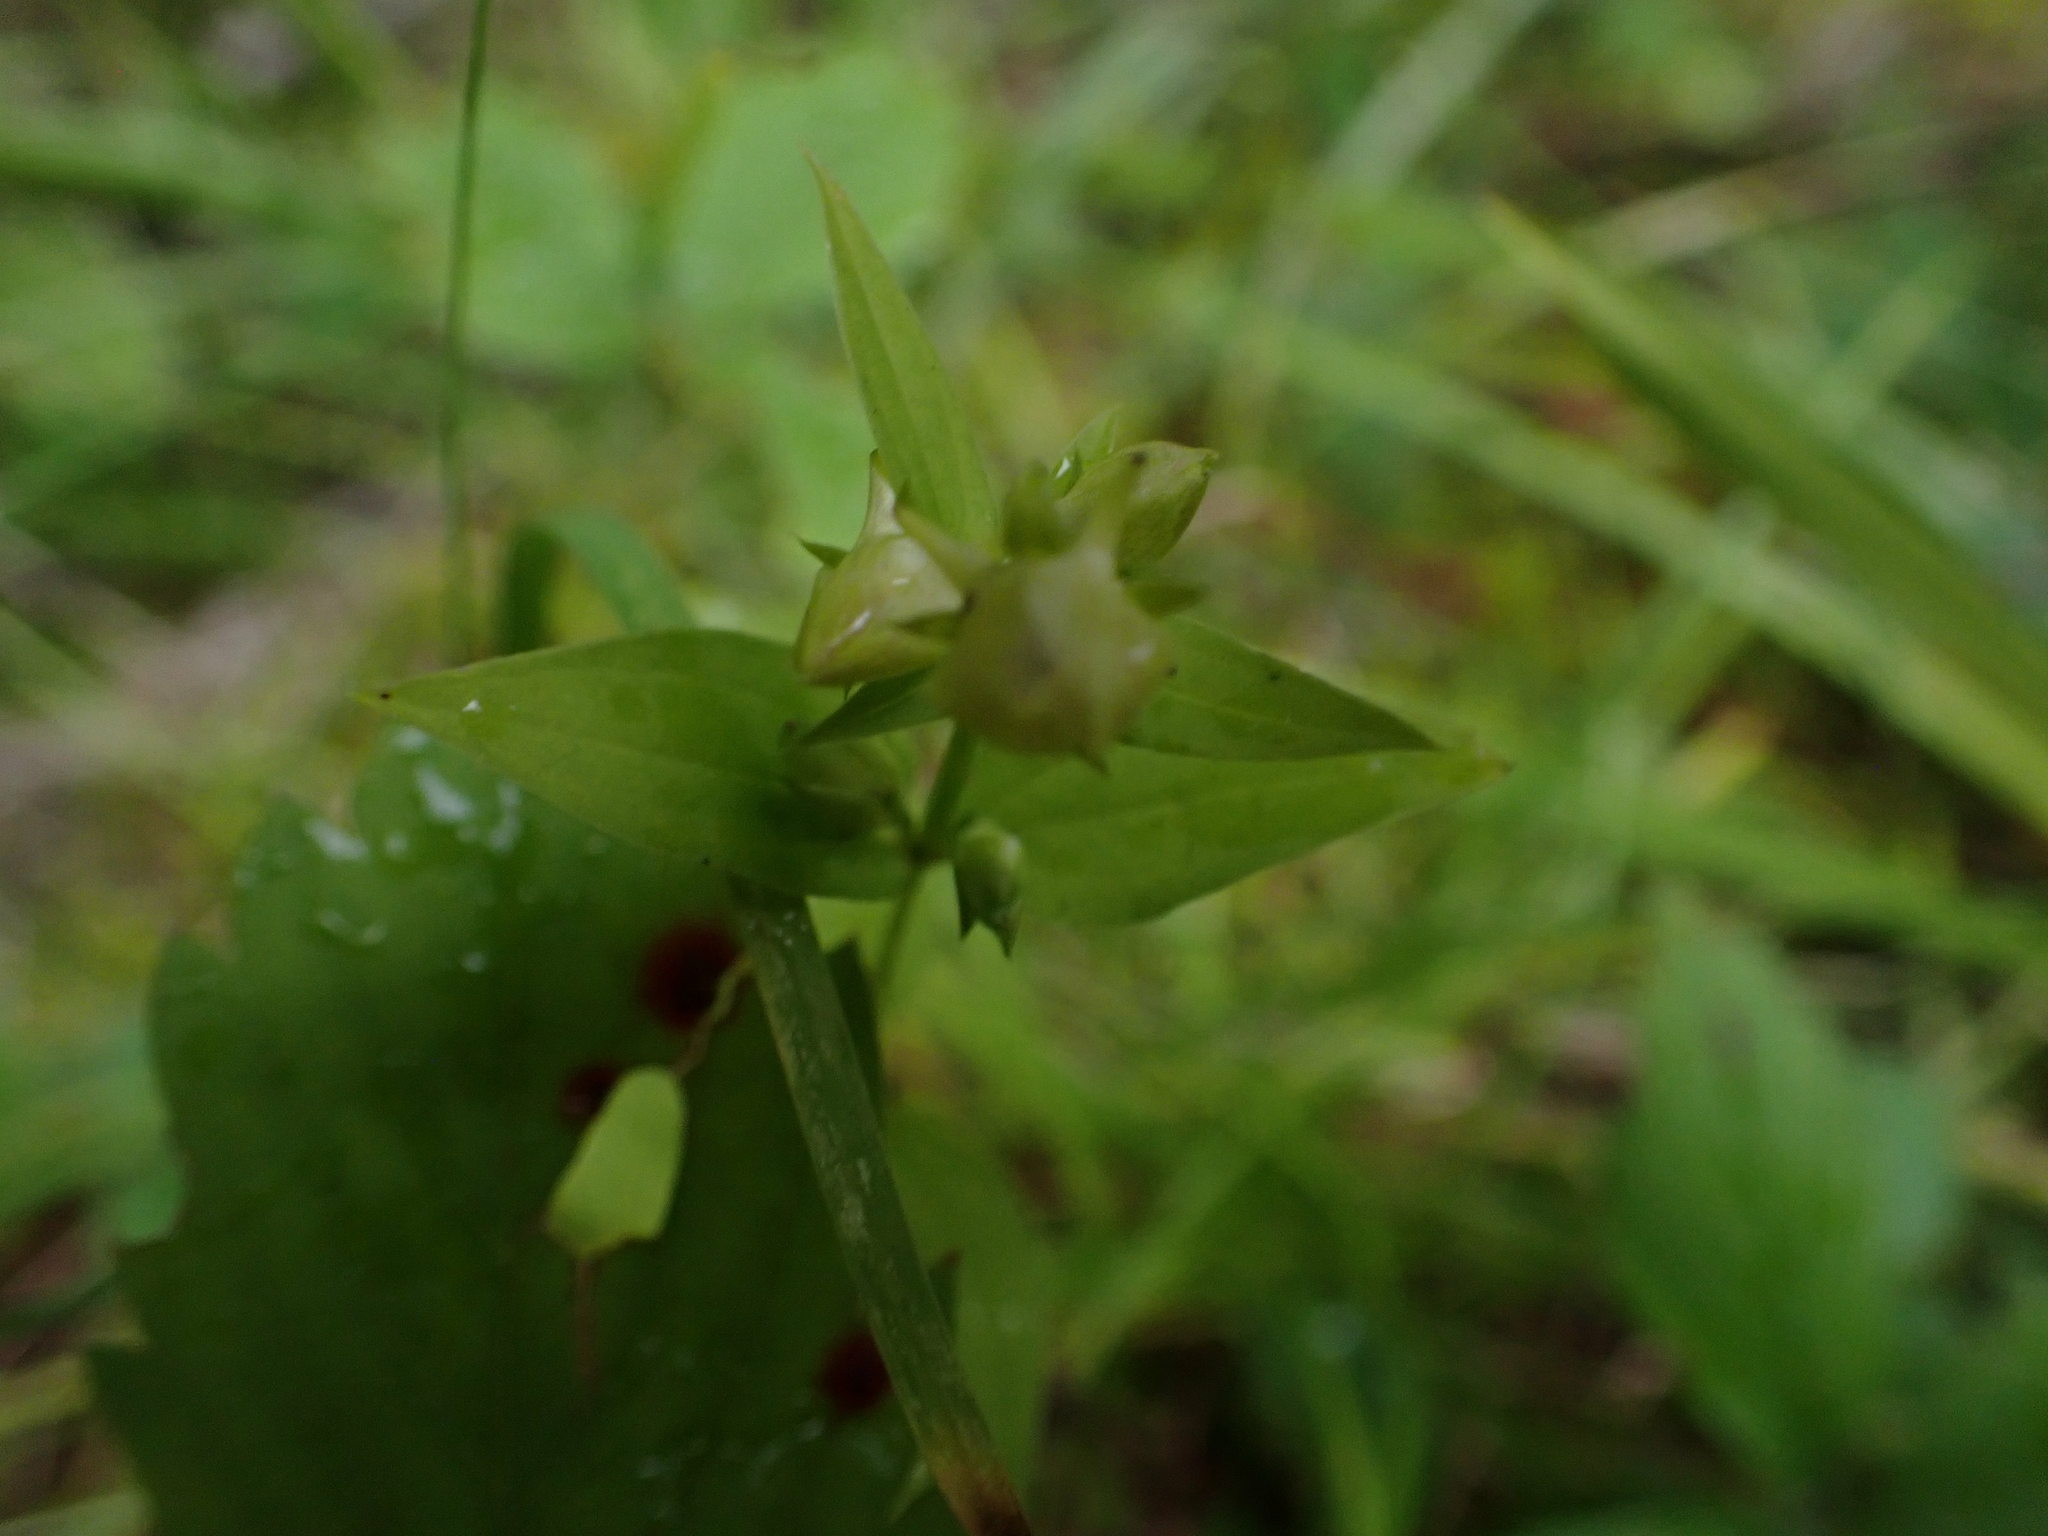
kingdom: Plantae
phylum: Tracheophyta
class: Magnoliopsida
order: Gentianales
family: Gentianaceae
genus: Halenia
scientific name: Halenia deflexa
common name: American spurred gentian
